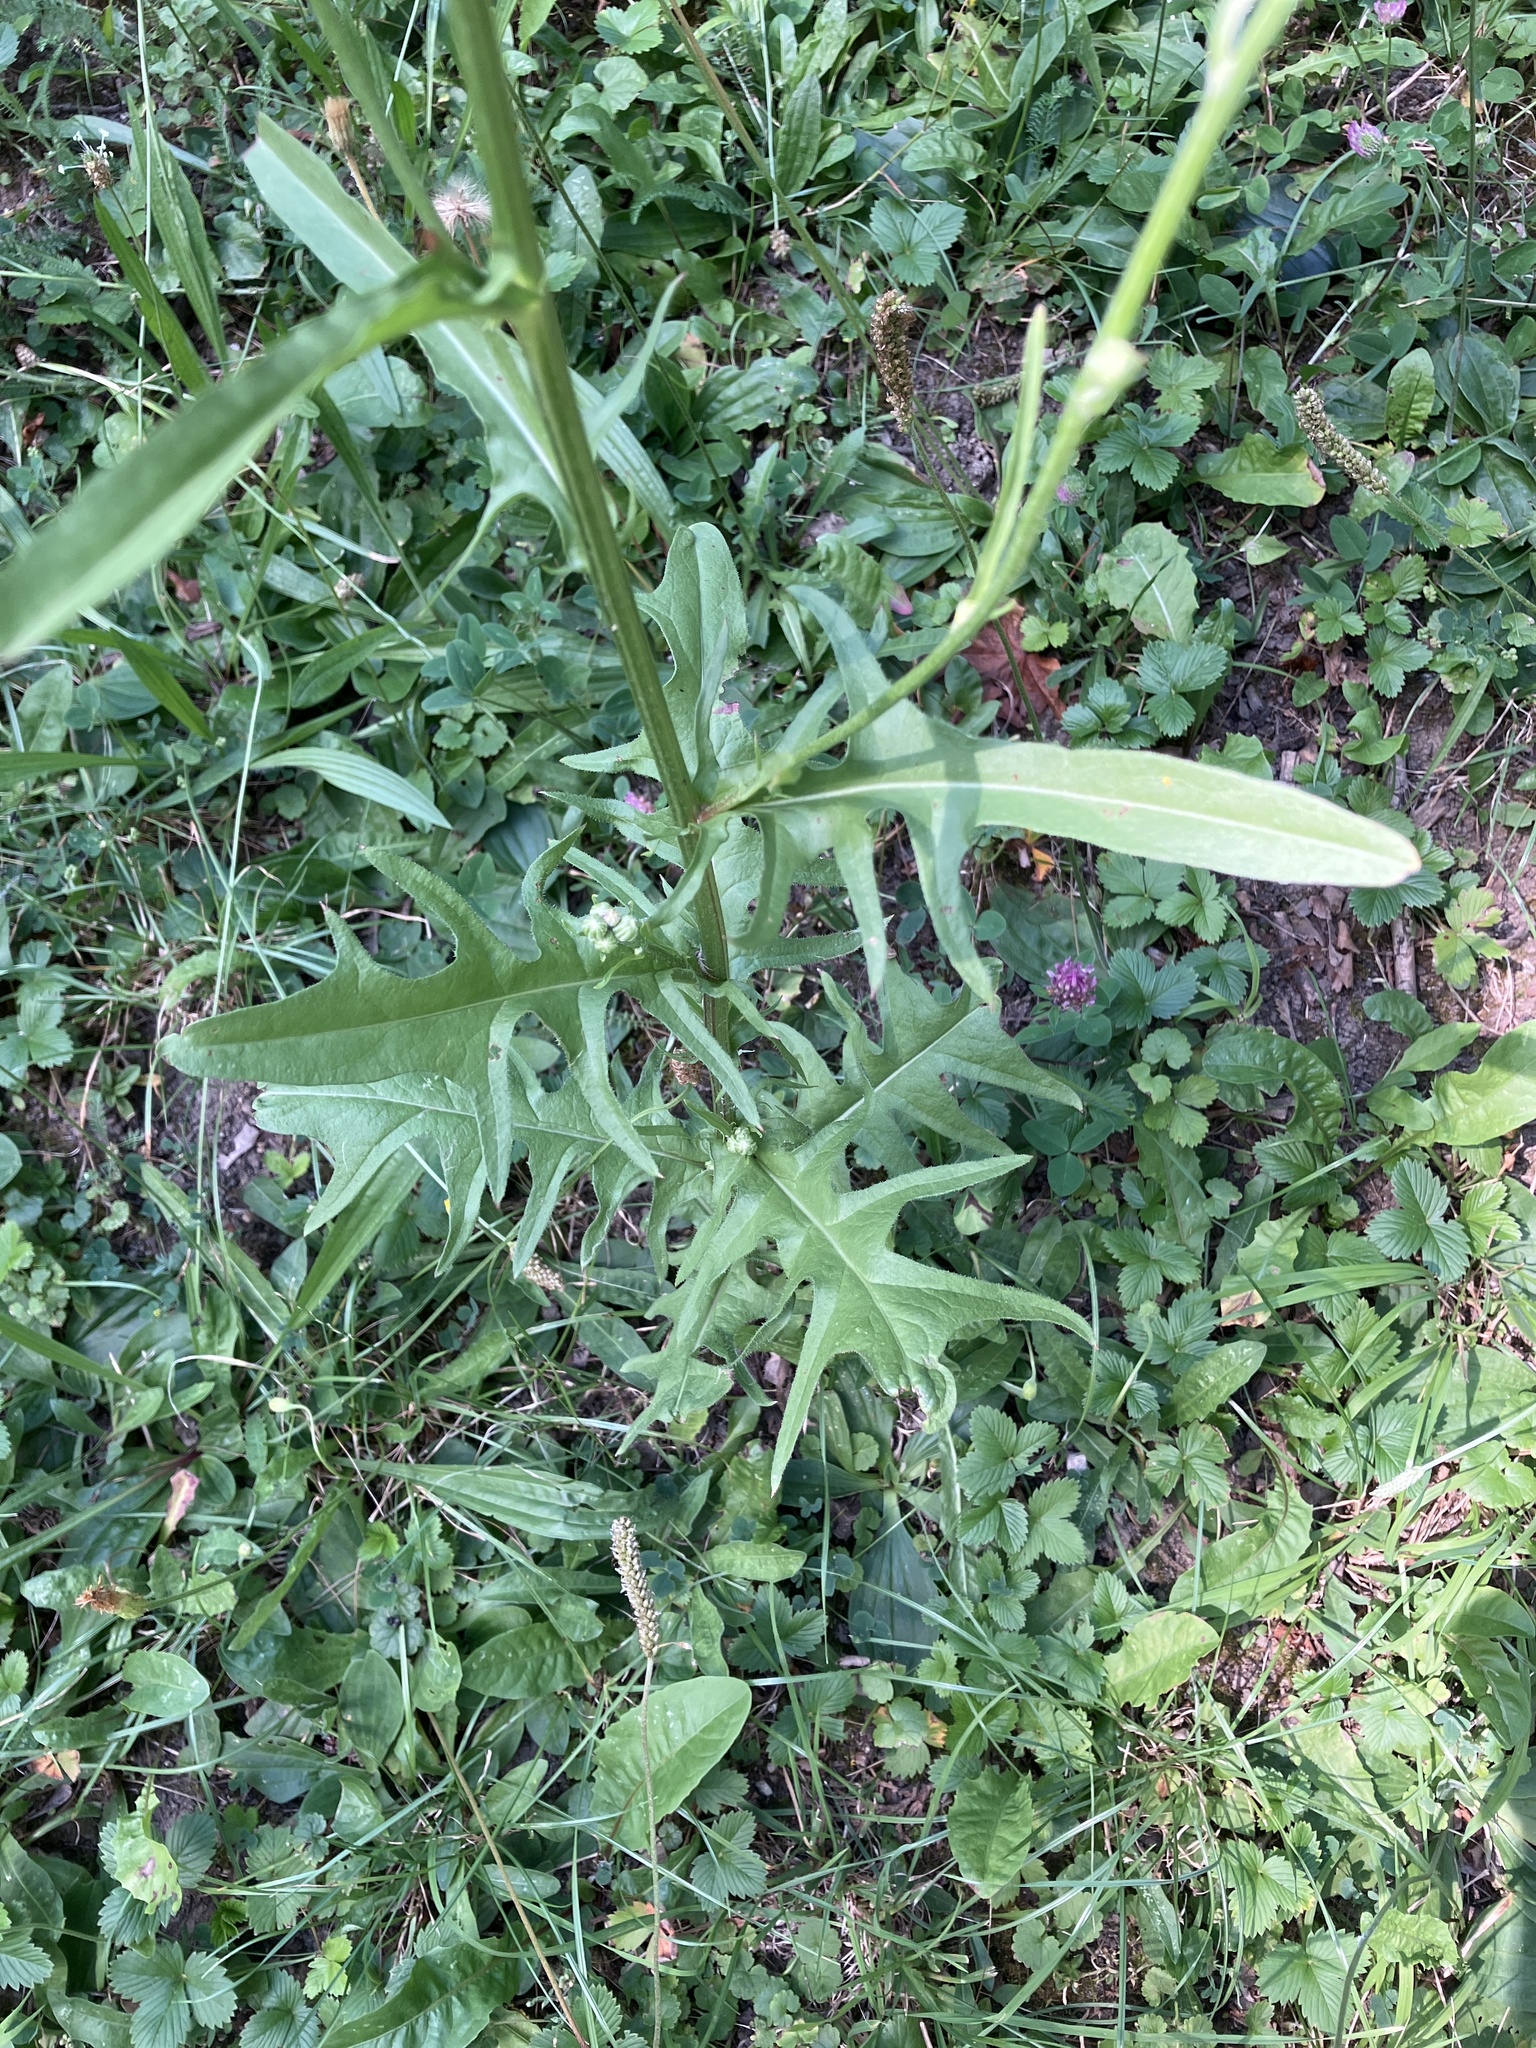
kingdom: Plantae
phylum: Tracheophyta
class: Magnoliopsida
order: Asterales
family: Asteraceae
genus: Crepis
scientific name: Crepis biennis
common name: Rough hawk's-beard
